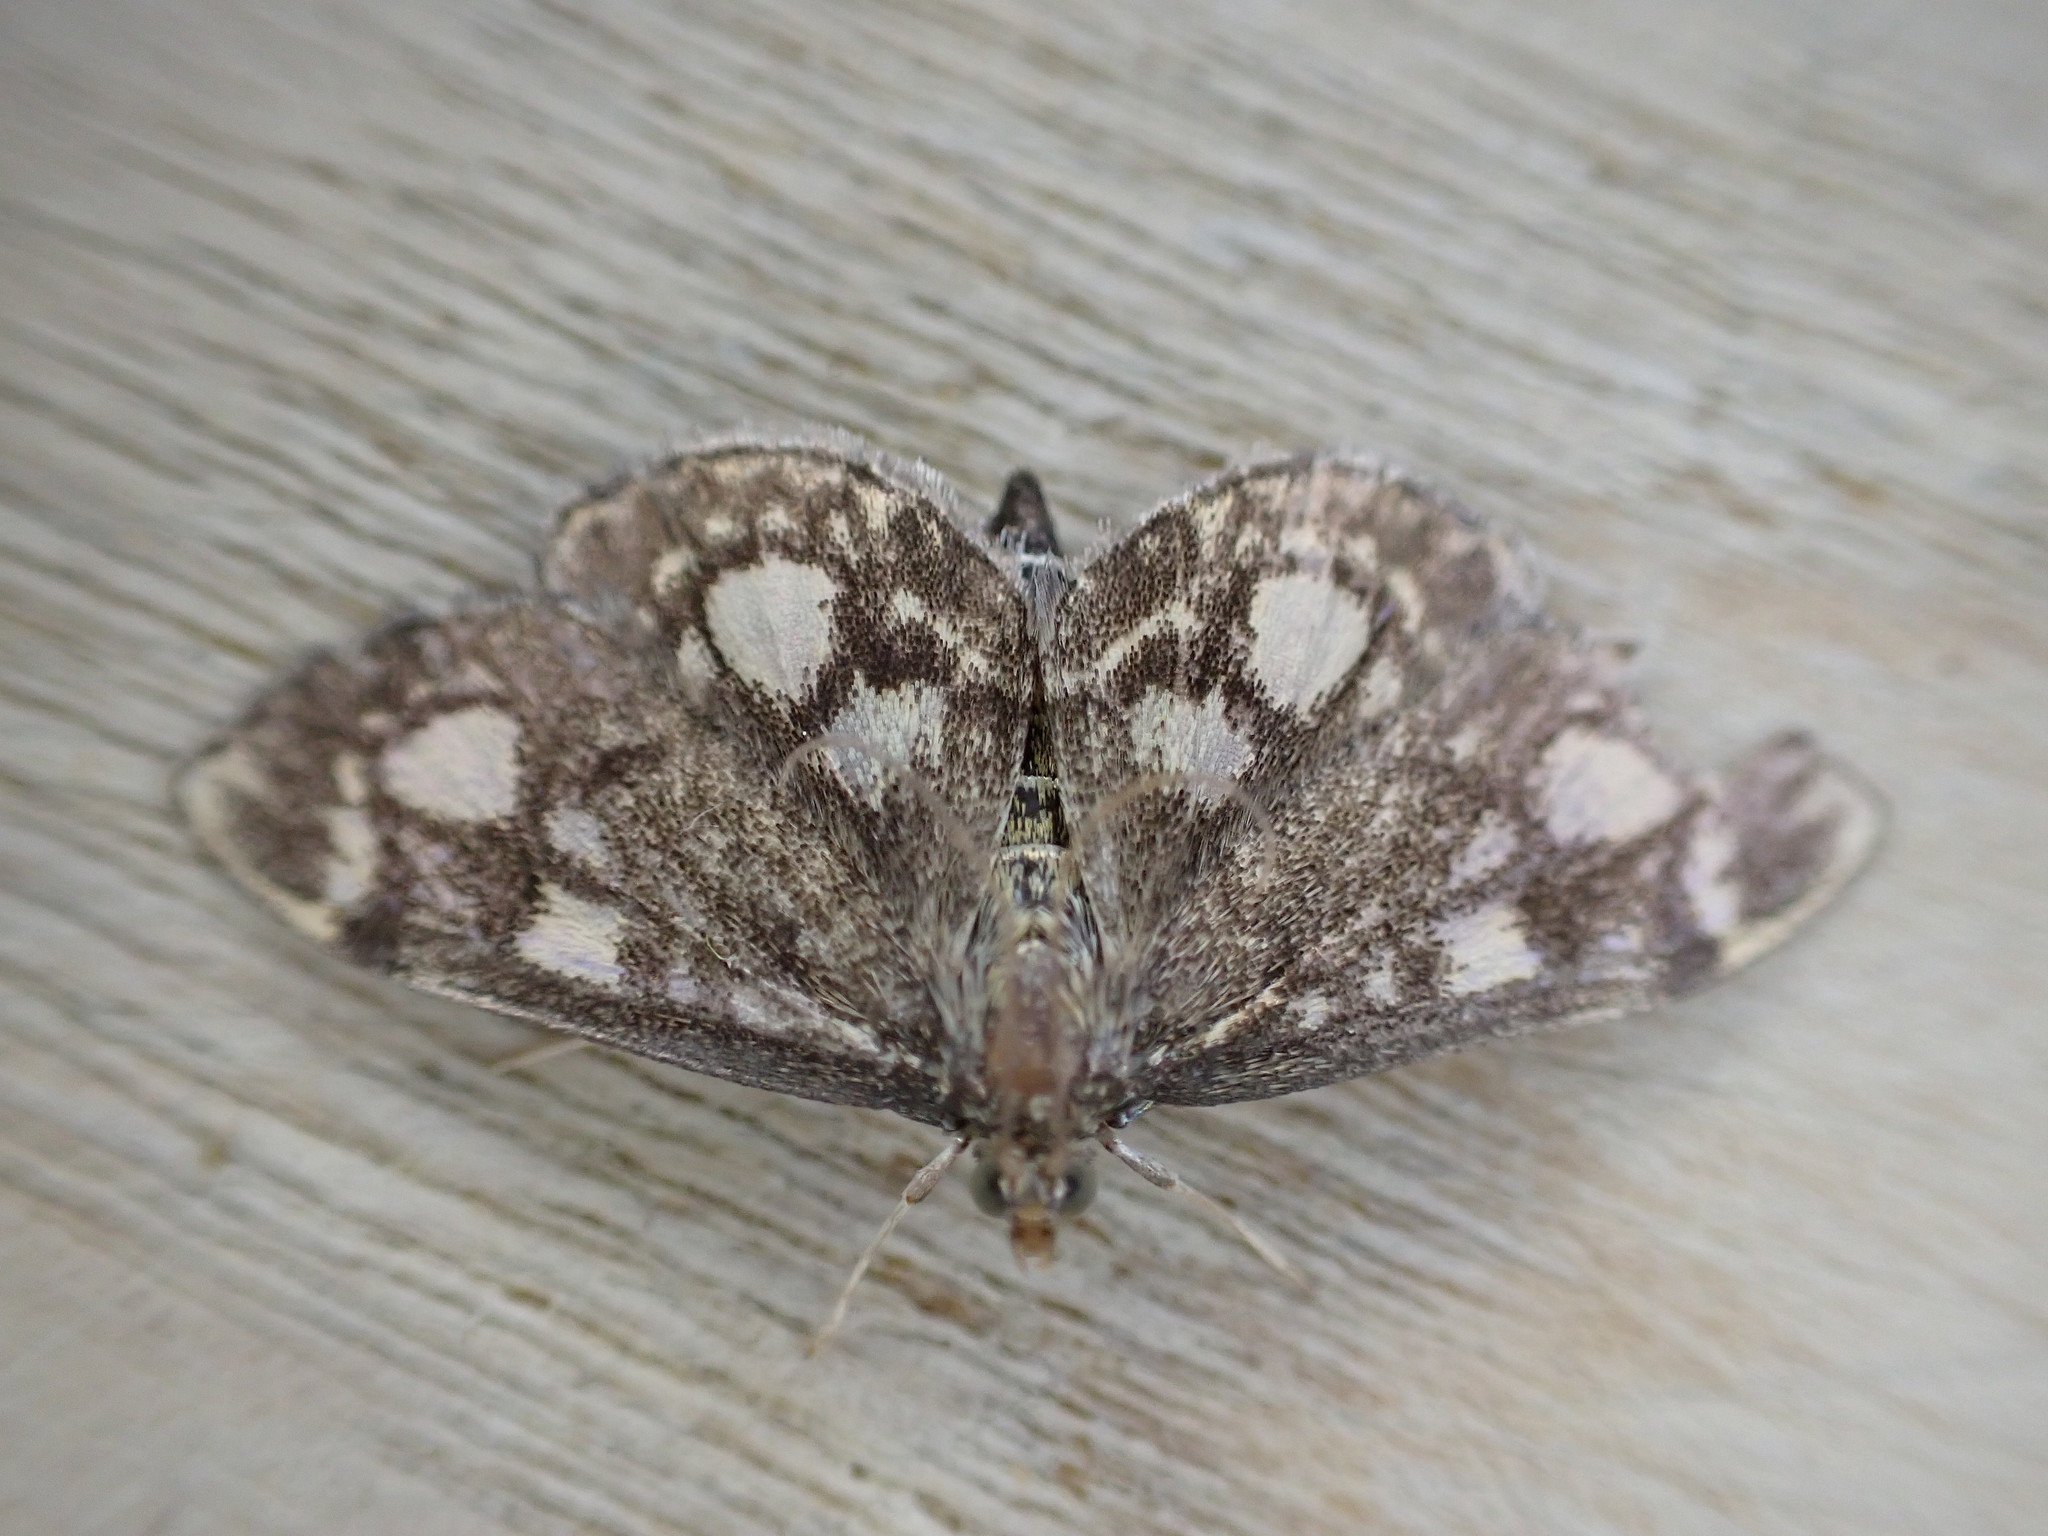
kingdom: Animalia
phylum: Arthropoda
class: Insecta
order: Lepidoptera
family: Crambidae
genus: Anania
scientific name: Anania coronata
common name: Elder pearl
